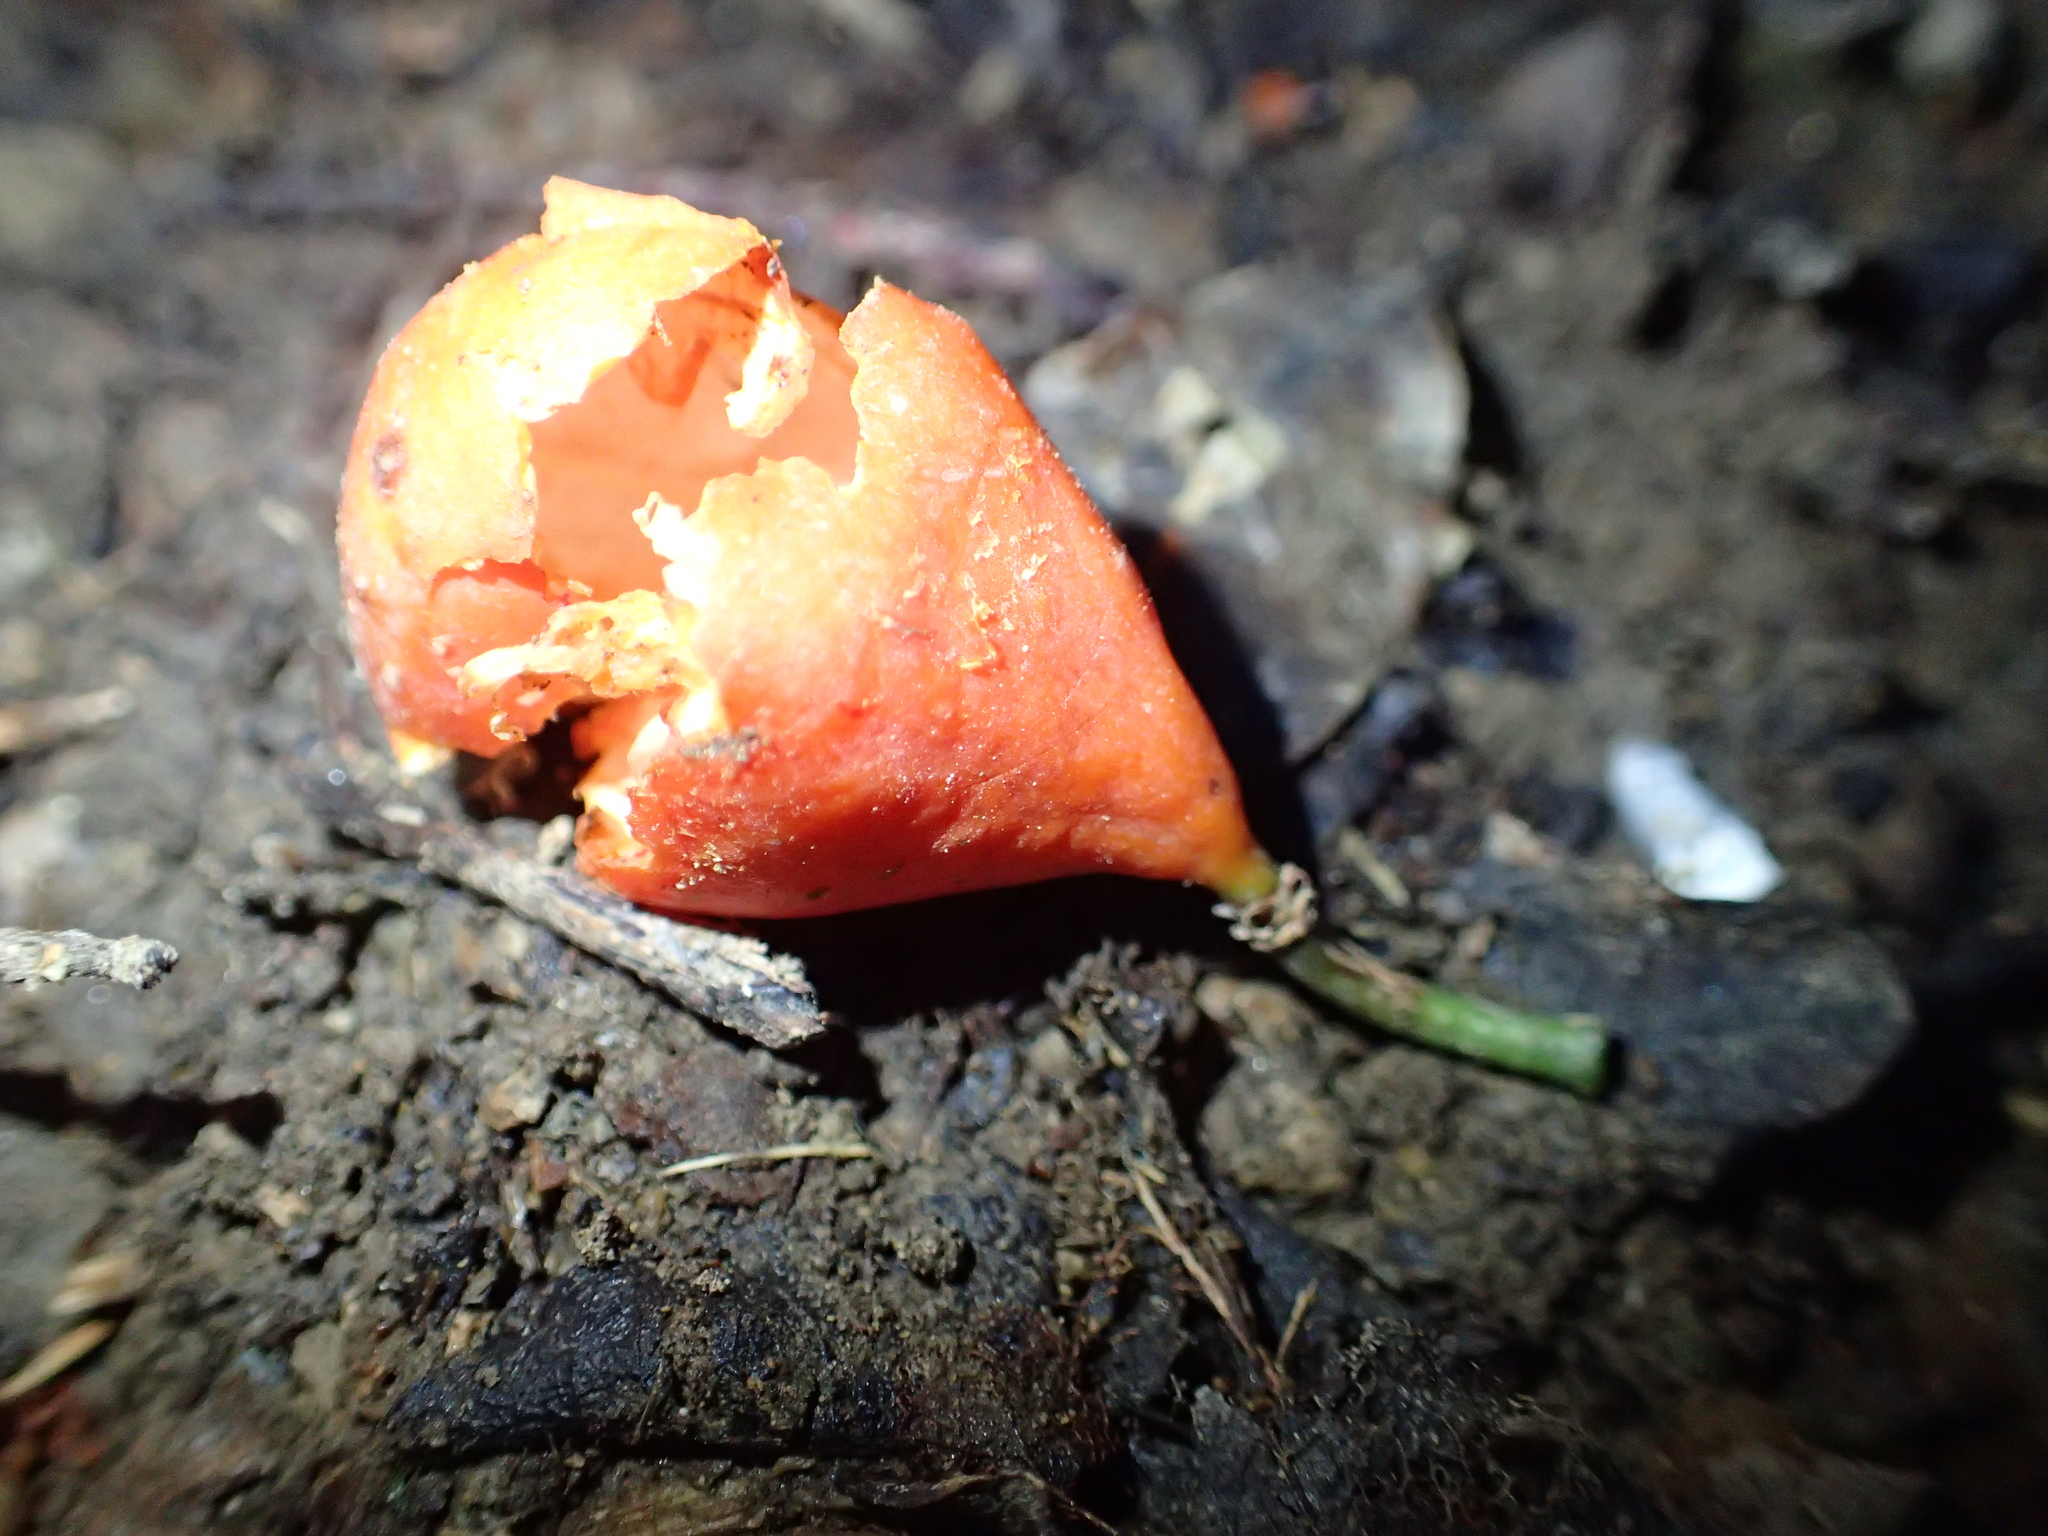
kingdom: Plantae
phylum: Tracheophyta
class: Magnoliopsida
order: Malpighiales
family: Passifloraceae
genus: Passiflora
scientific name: Passiflora tetrandra
